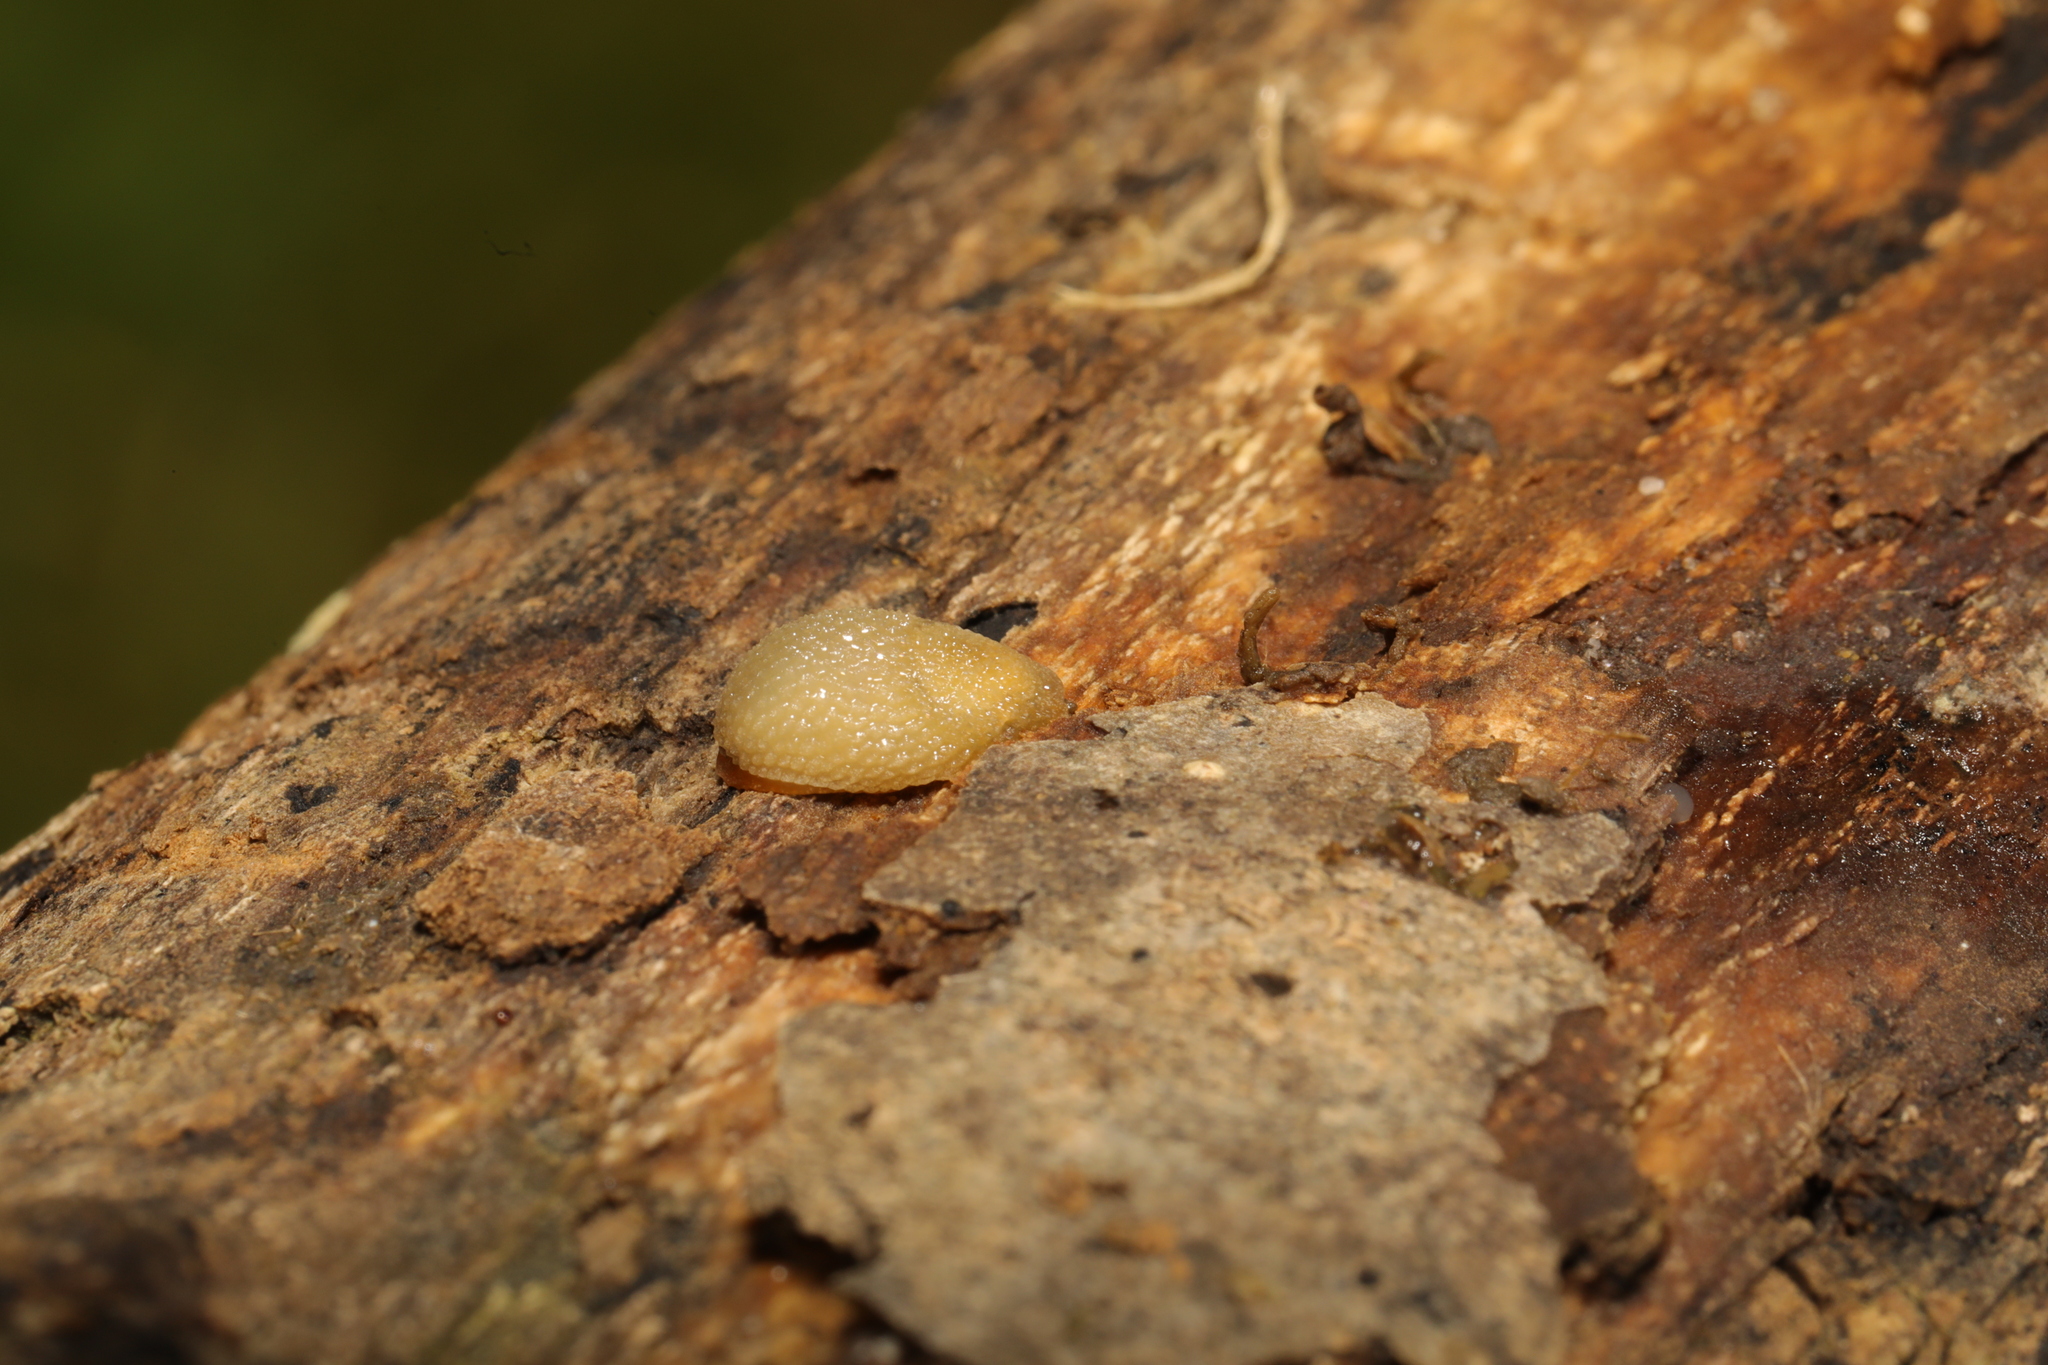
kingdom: Animalia
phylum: Mollusca
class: Gastropoda
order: Stylommatophora
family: Arionidae
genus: Arion
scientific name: Arion intermedius
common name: Hedgehog slug
